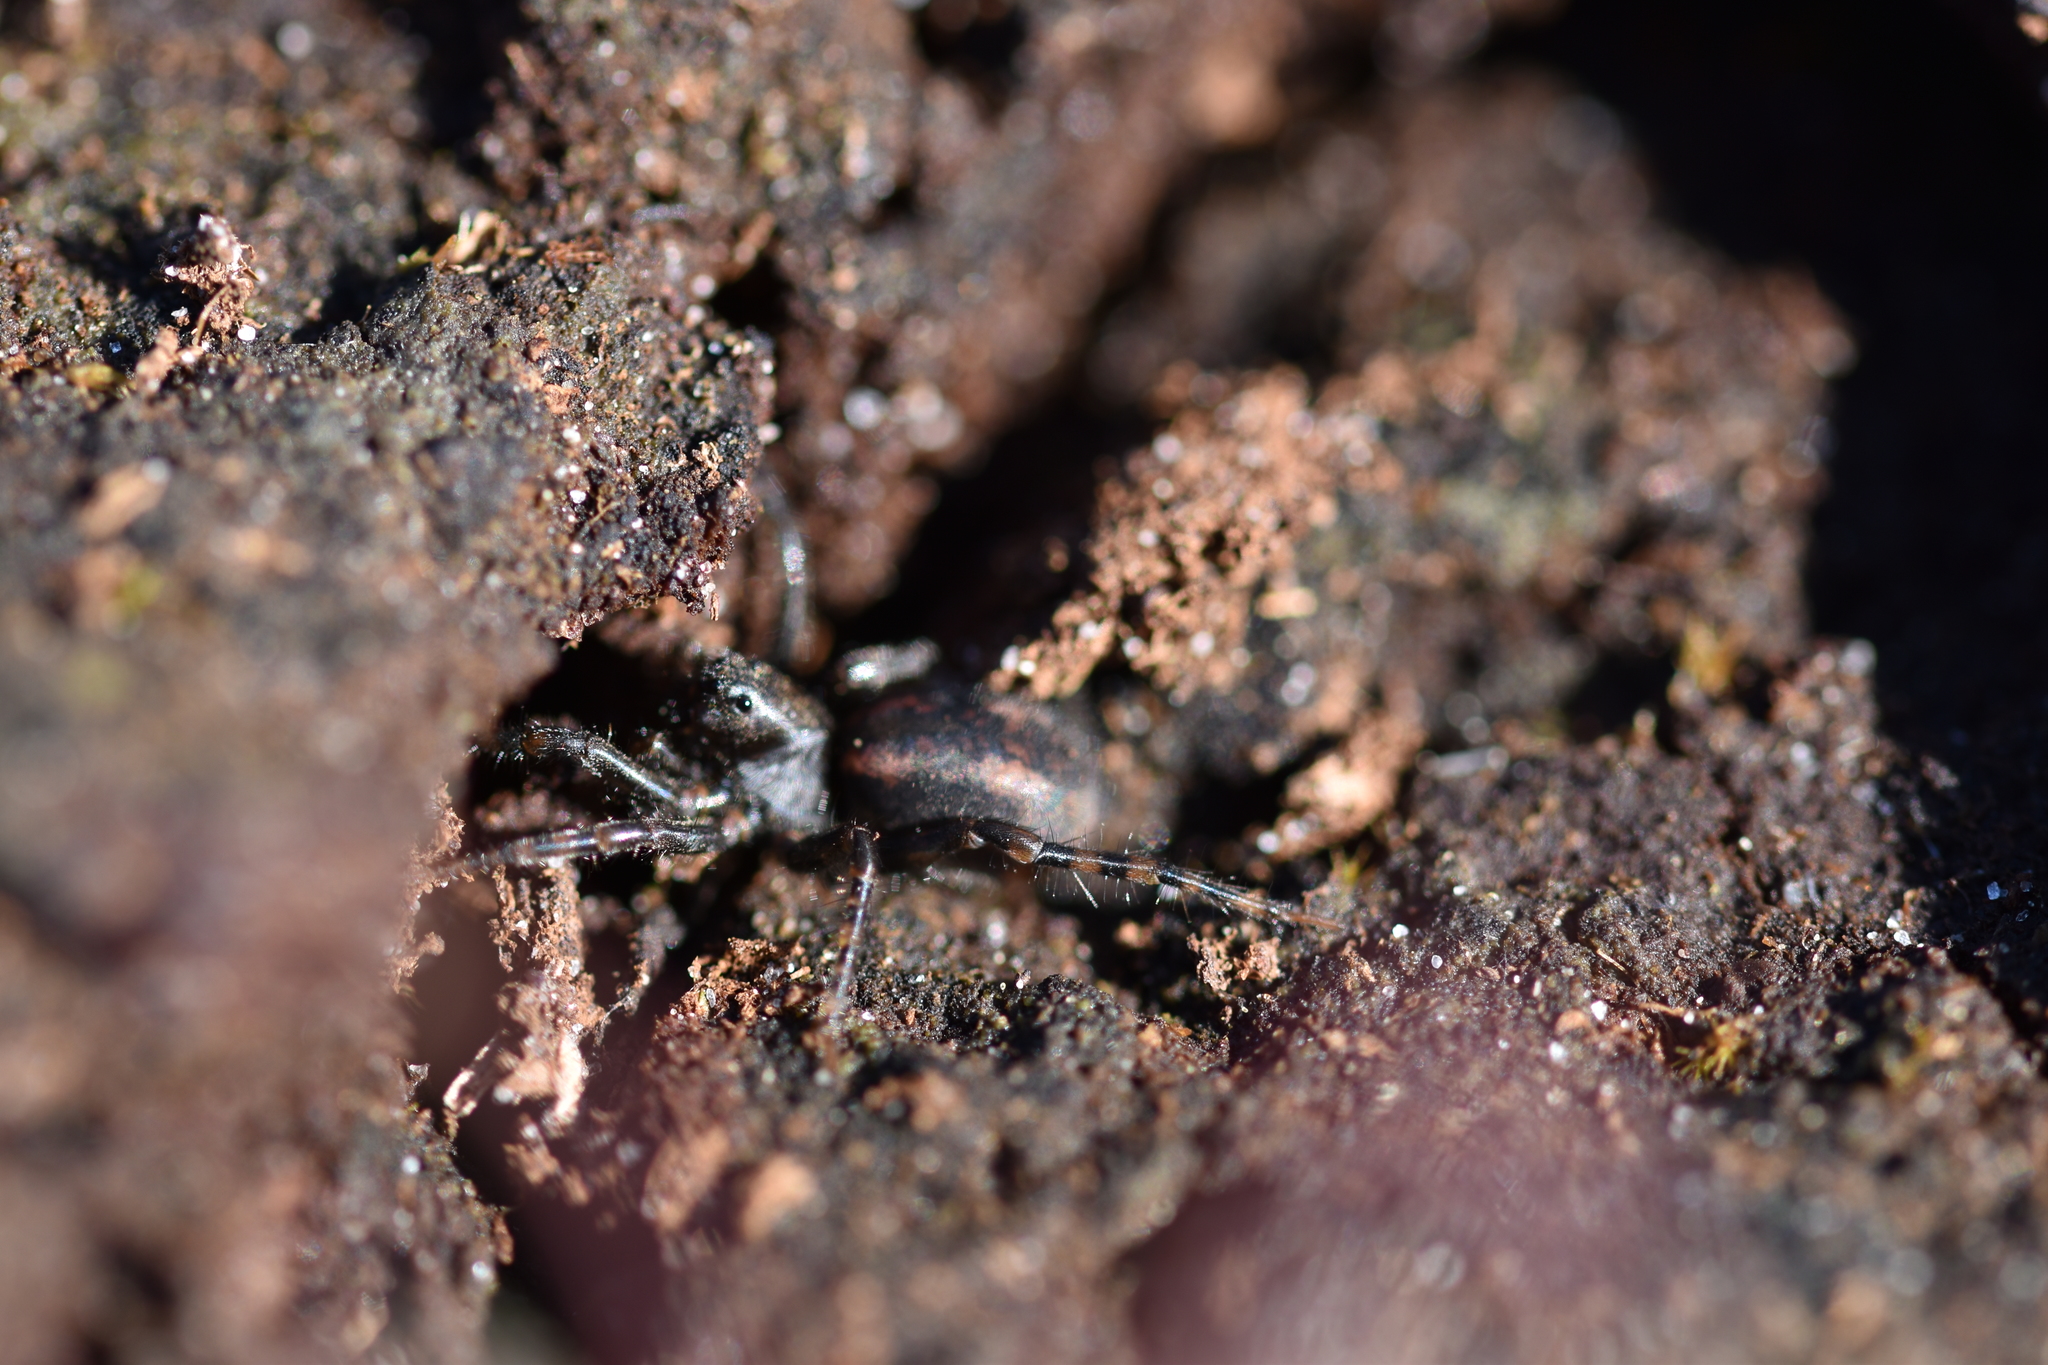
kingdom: Animalia
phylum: Arthropoda
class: Arachnida
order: Araneae
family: Lycosidae
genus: Arctosa
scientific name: Arctosa perita
